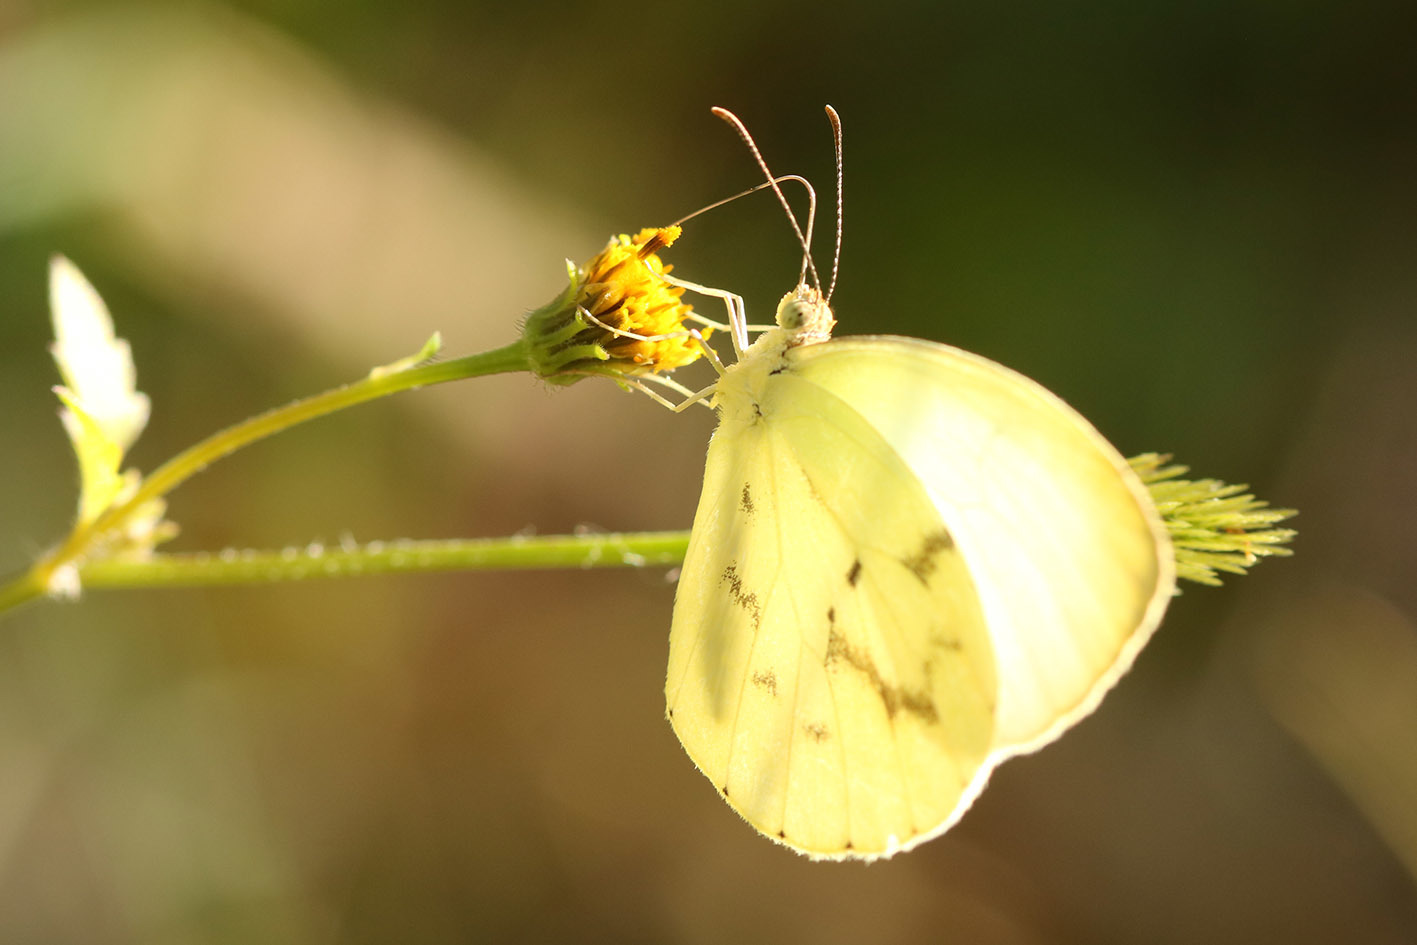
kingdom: Animalia
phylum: Arthropoda
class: Insecta
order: Lepidoptera
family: Pieridae
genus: Abaeis
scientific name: Abaeis albula
